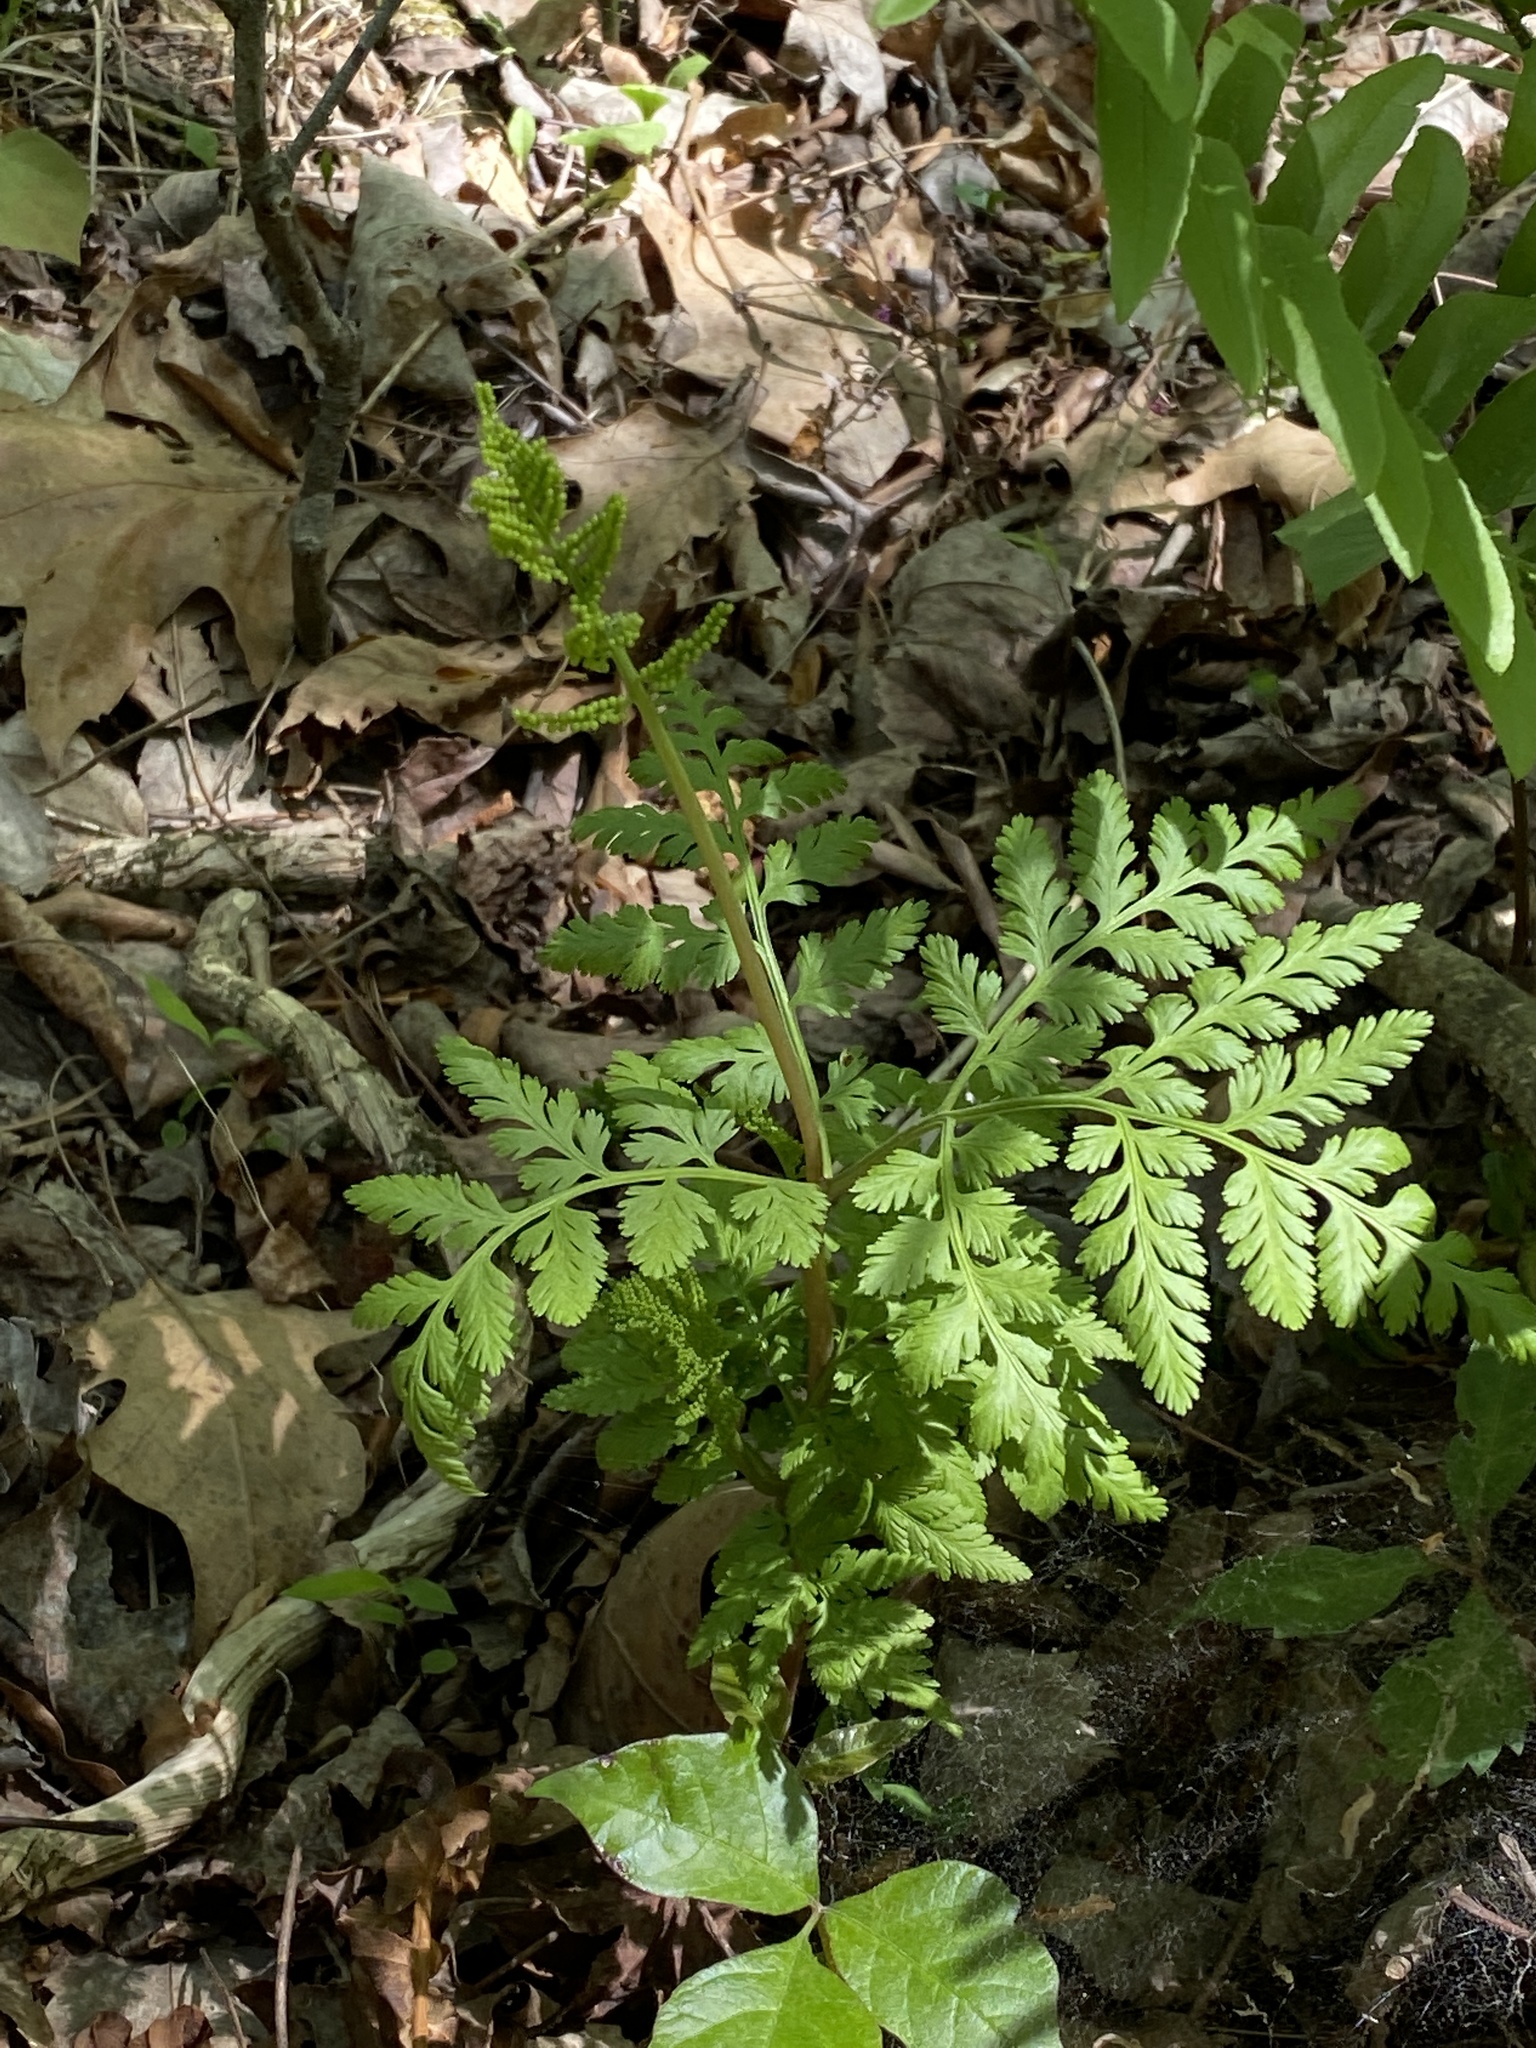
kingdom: Plantae
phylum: Tracheophyta
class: Polypodiopsida
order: Ophioglossales
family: Ophioglossaceae
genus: Botrypus
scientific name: Botrypus virginianus
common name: Common grapefern
